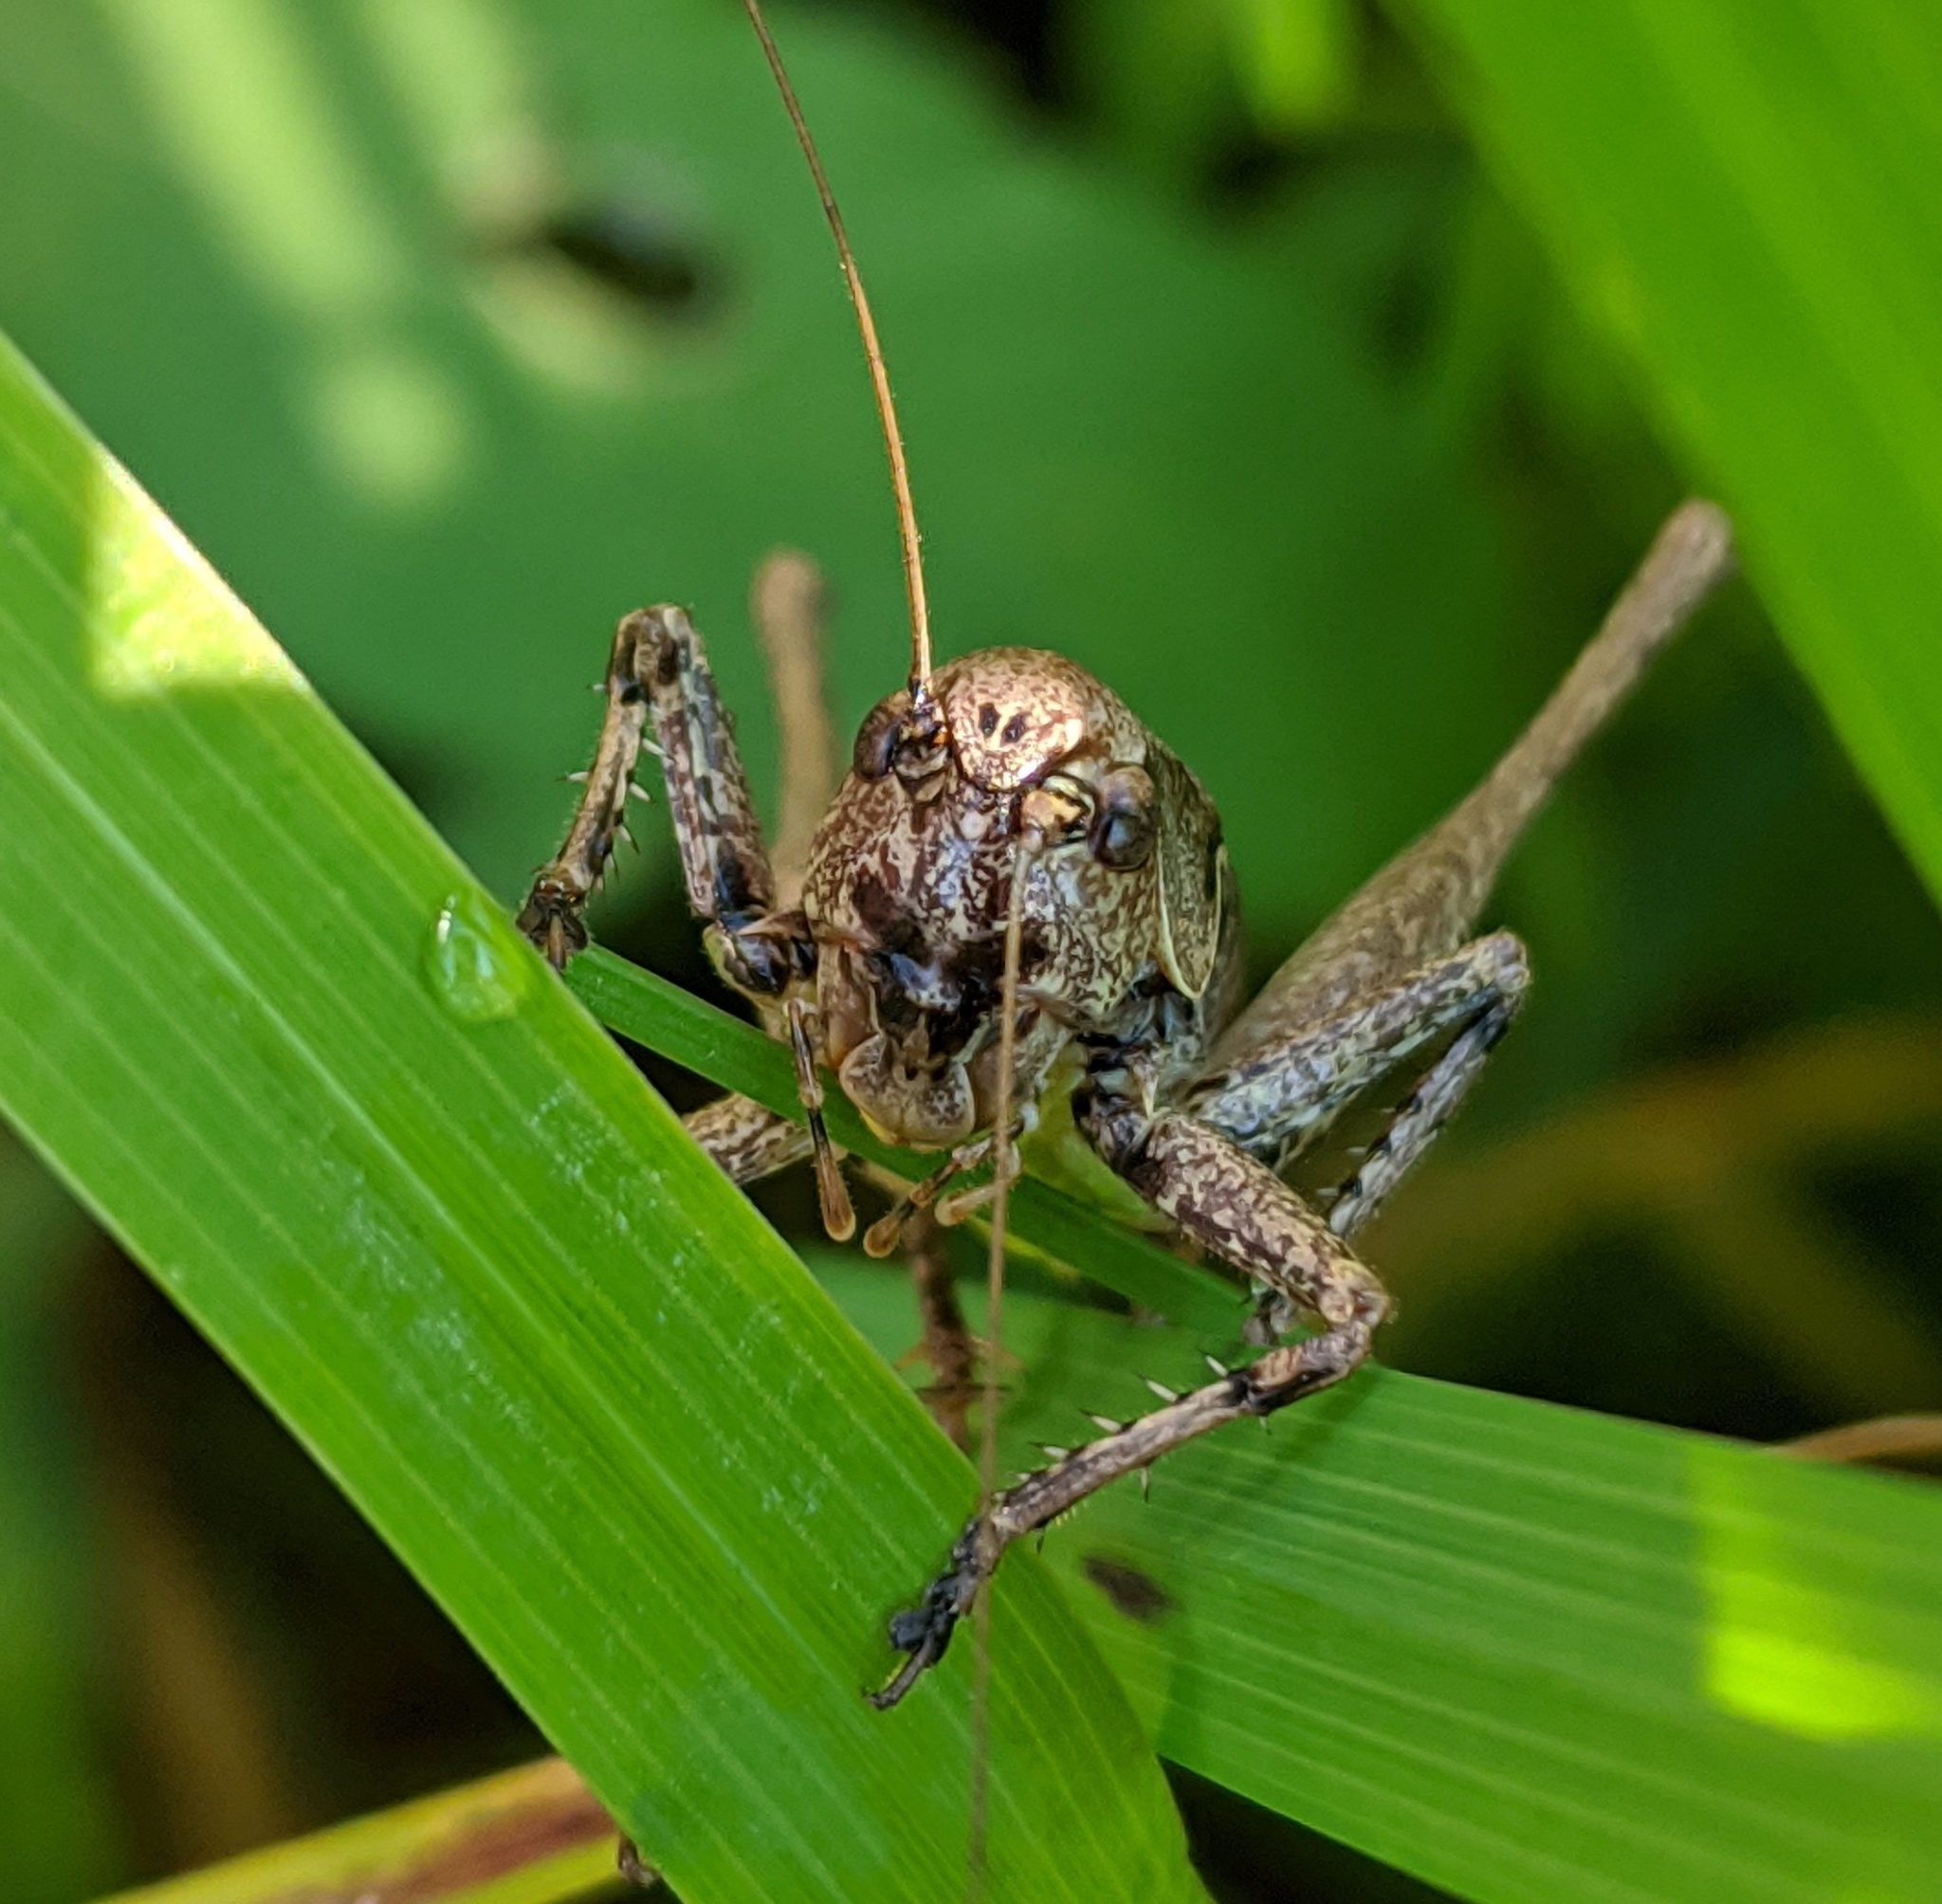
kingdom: Animalia
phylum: Arthropoda
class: Insecta
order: Orthoptera
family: Tettigoniidae
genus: Pholidoptera
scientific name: Pholidoptera griseoaptera
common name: Dark bush-cricket
